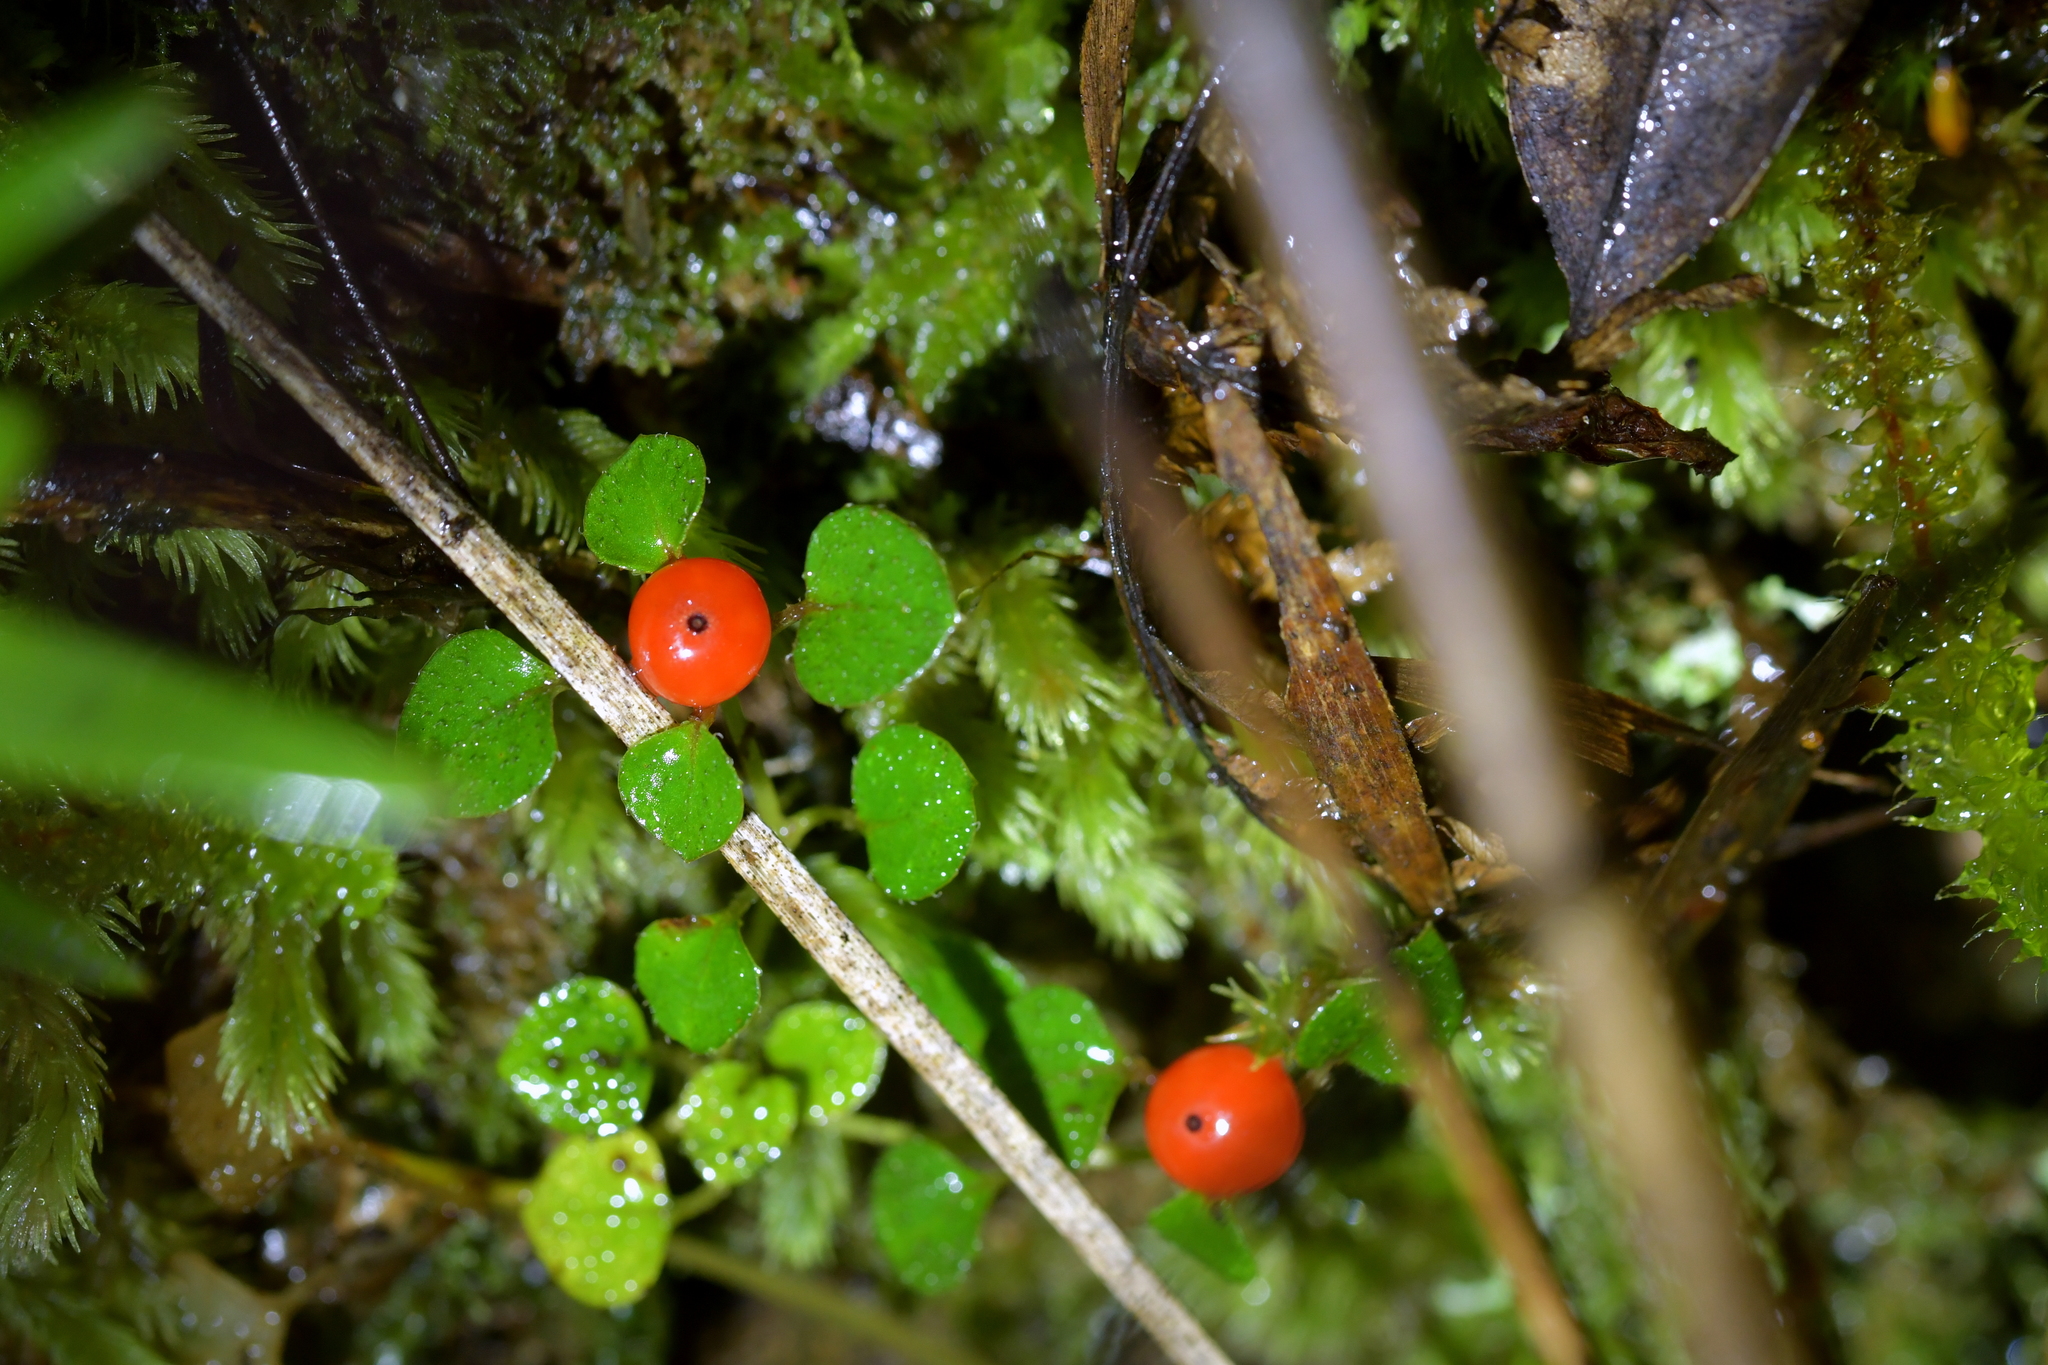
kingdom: Plantae
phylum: Tracheophyta
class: Magnoliopsida
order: Gentianales
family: Rubiaceae
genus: Nertera
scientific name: Nertera dichondrifolia
